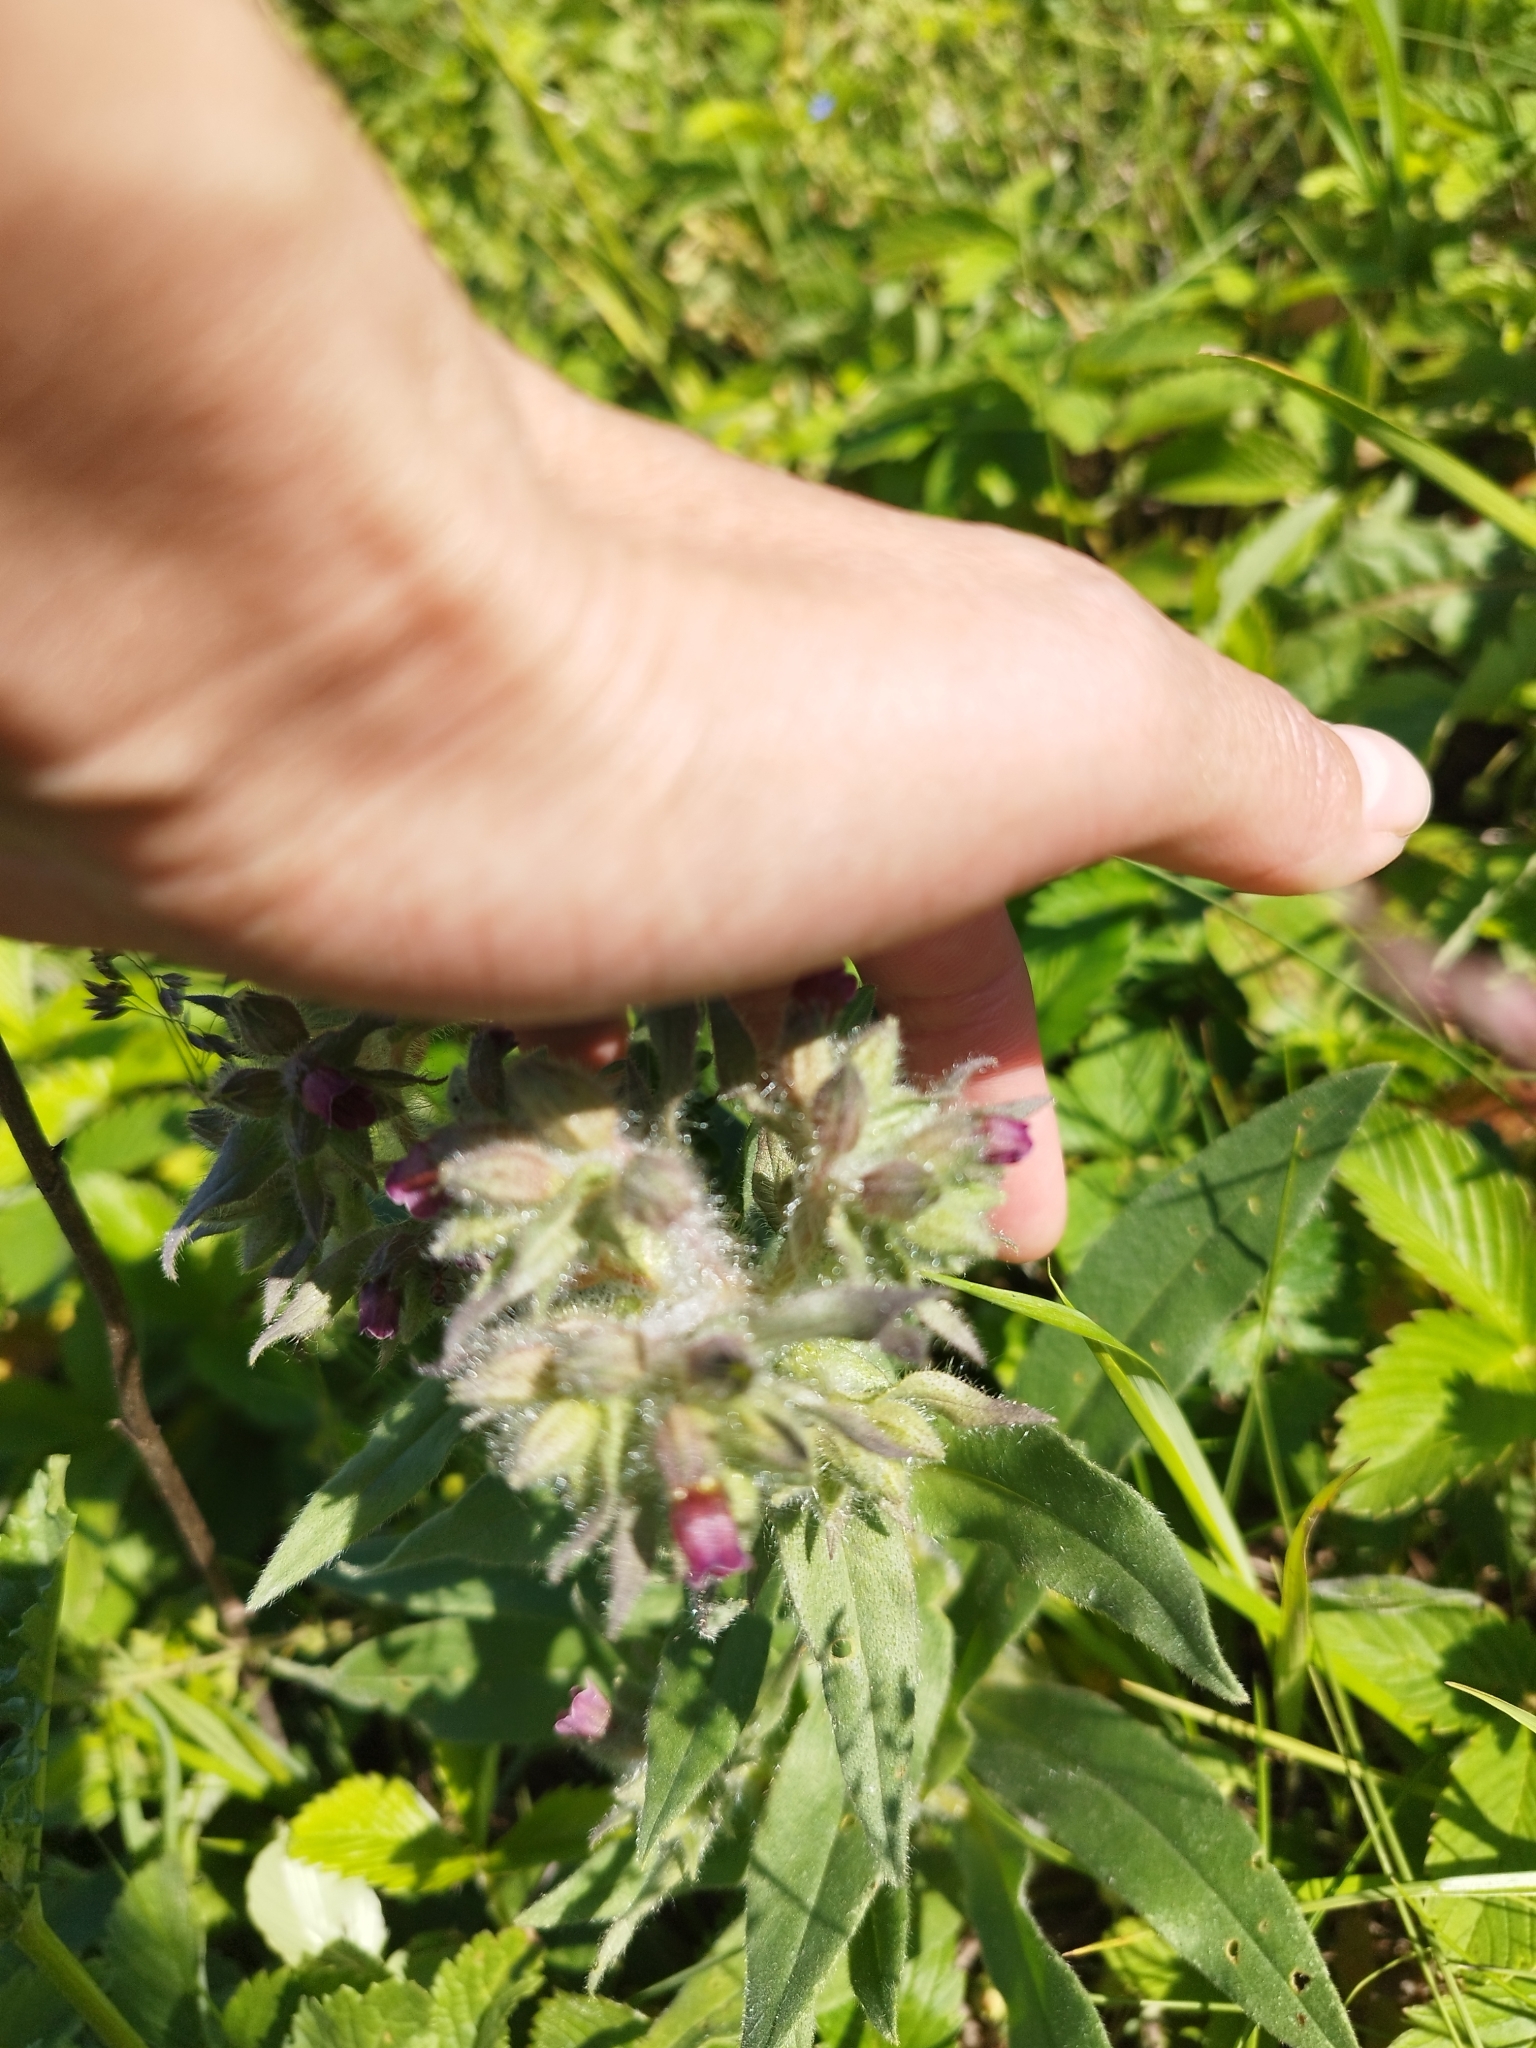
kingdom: Plantae
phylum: Tracheophyta
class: Magnoliopsida
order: Boraginales
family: Boraginaceae
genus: Nonea
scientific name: Nonea pulla
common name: Brown nonea
